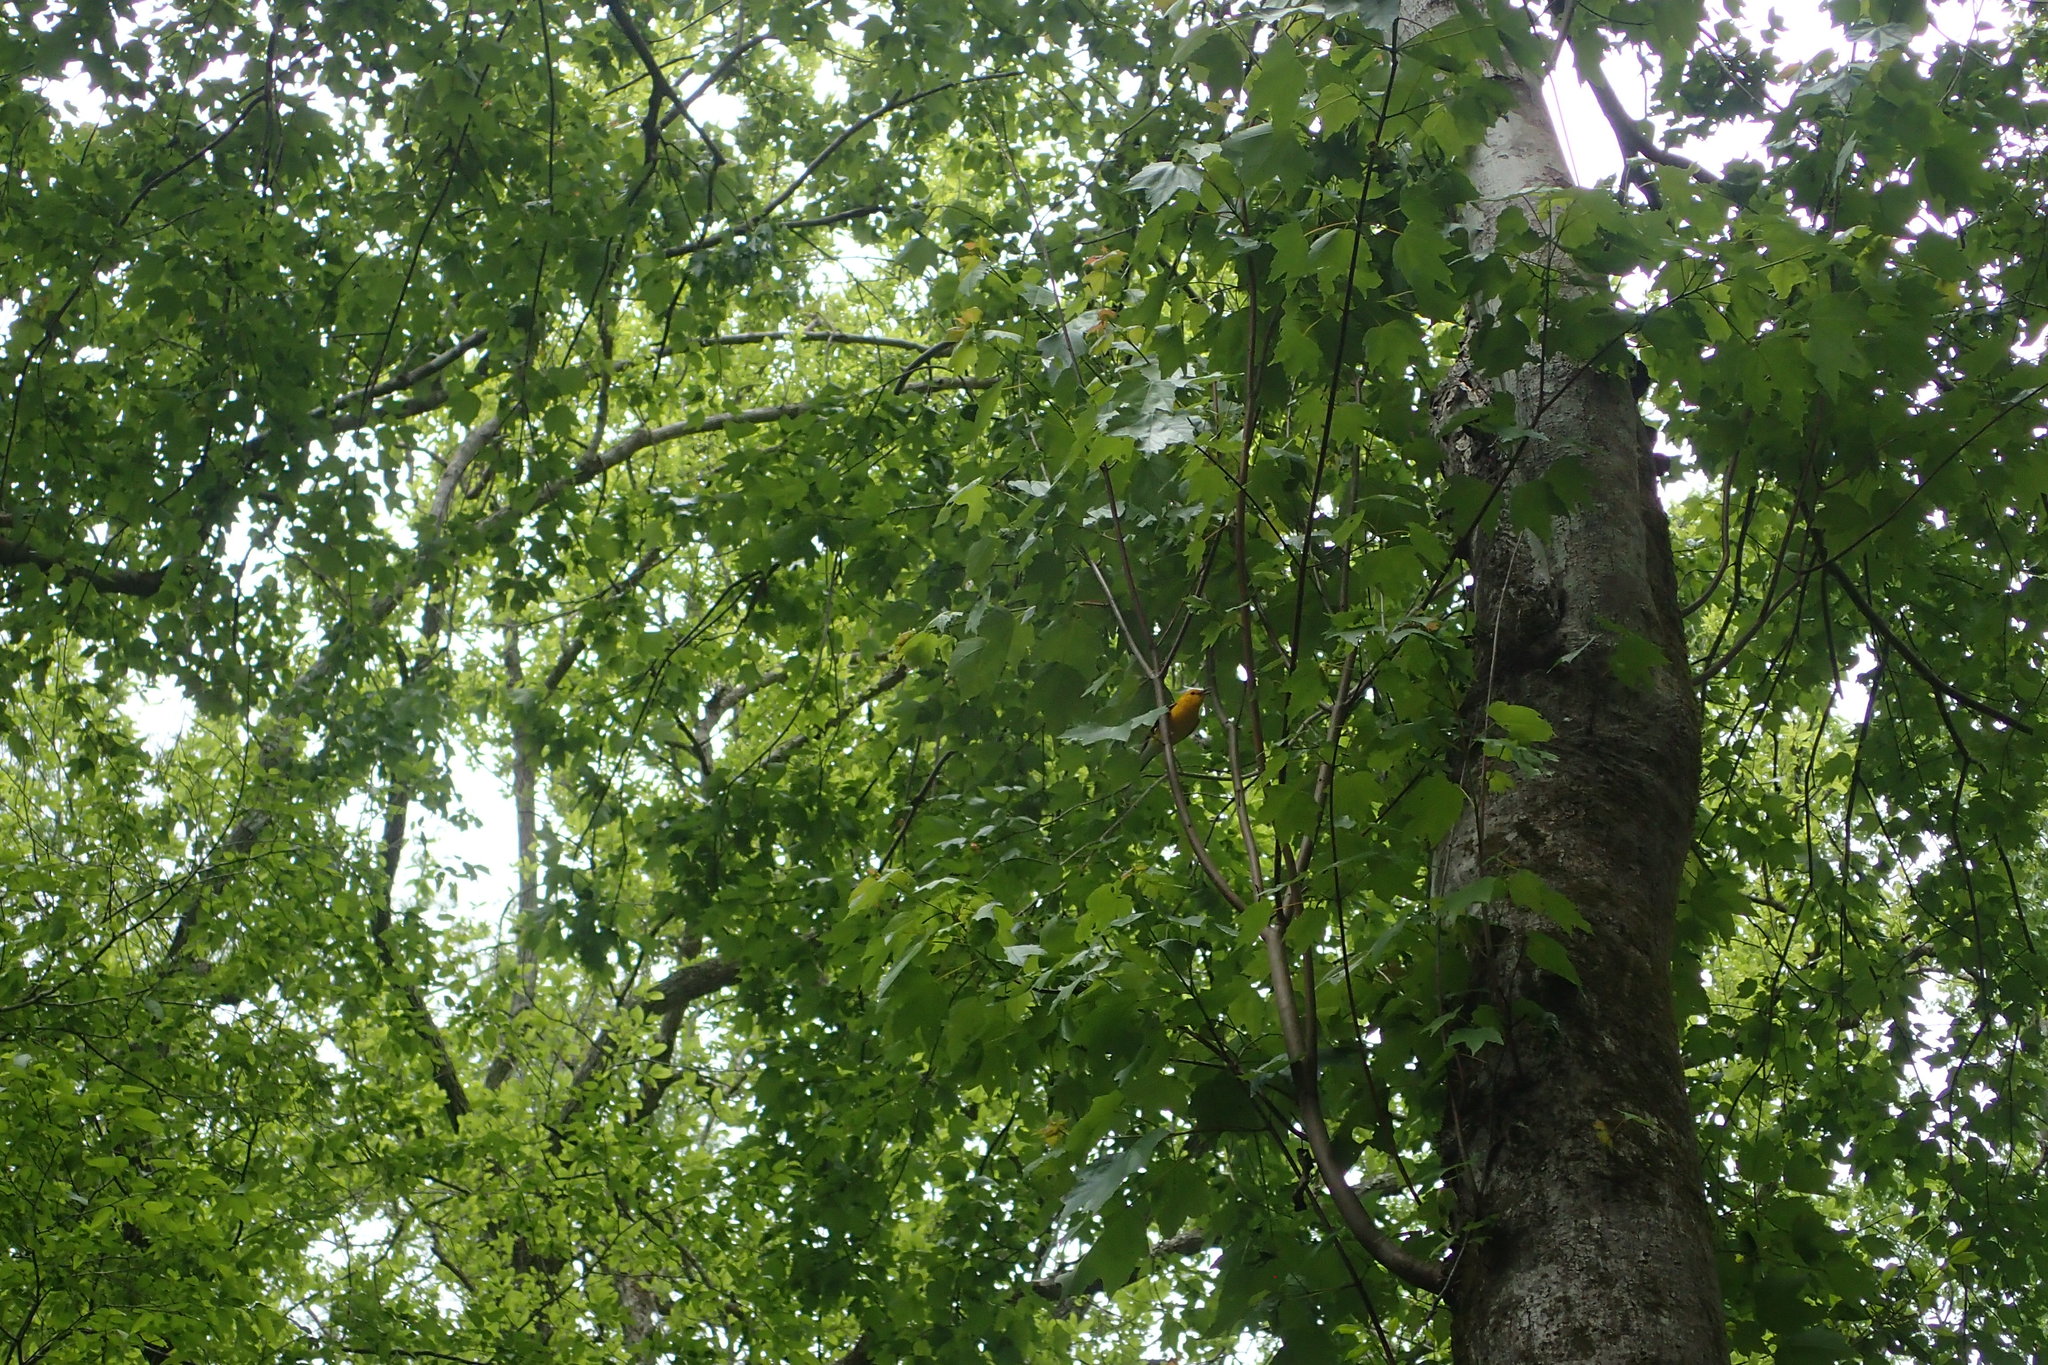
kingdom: Animalia
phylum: Chordata
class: Aves
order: Passeriformes
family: Parulidae
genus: Protonotaria
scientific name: Protonotaria citrea
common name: Prothonotary warbler
